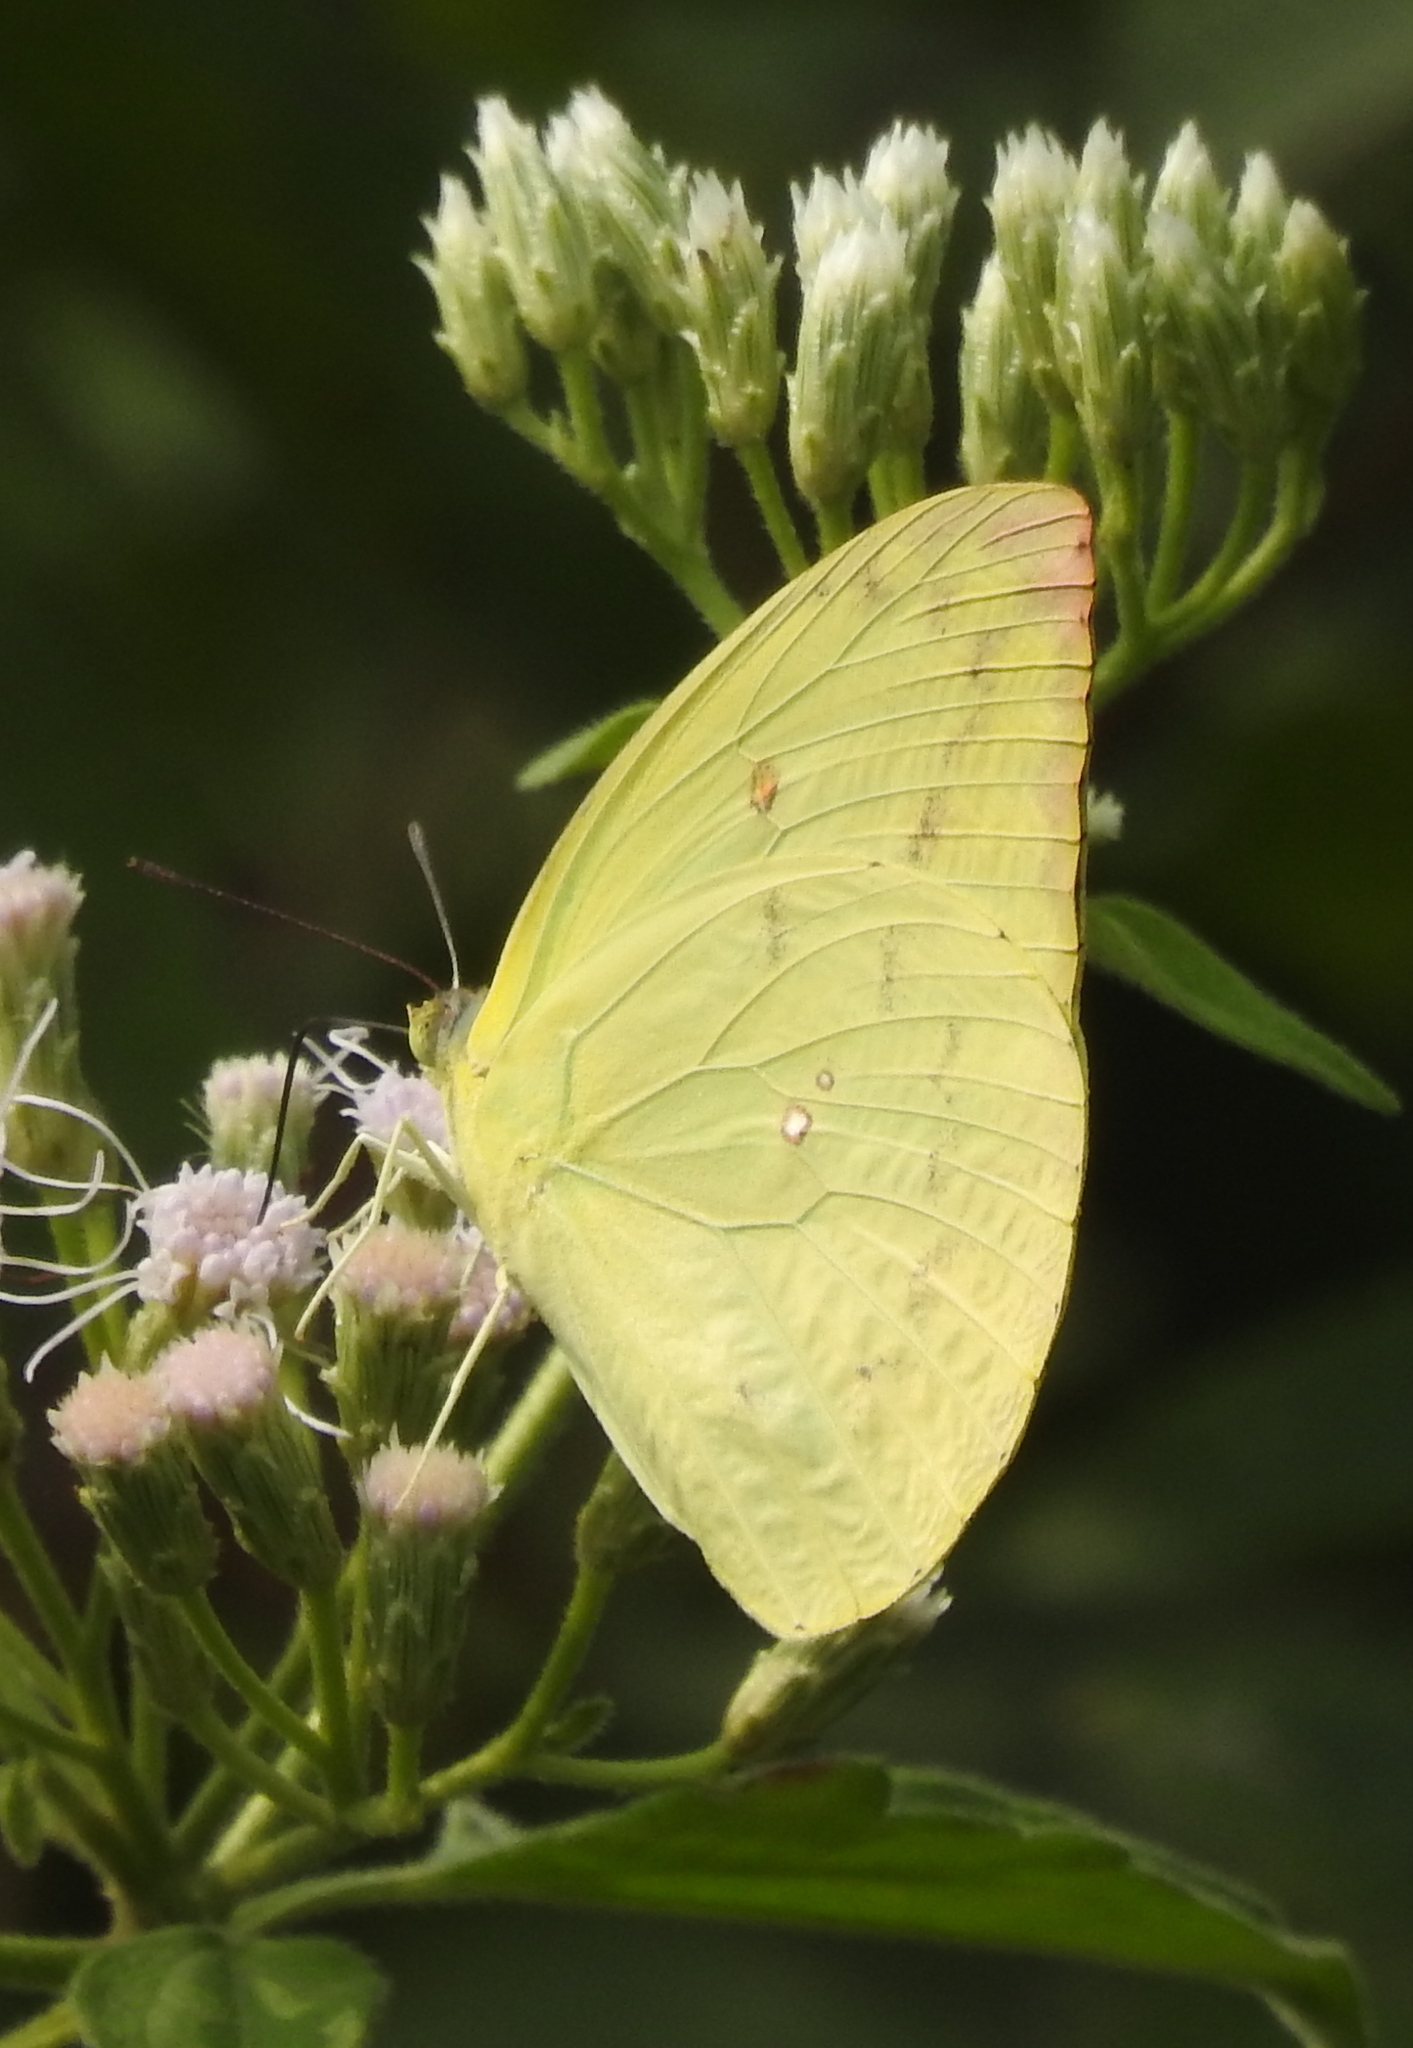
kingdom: Animalia
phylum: Arthropoda
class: Insecta
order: Lepidoptera
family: Pieridae
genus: Catopsilia
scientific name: Catopsilia pomona
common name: Common emigrant
